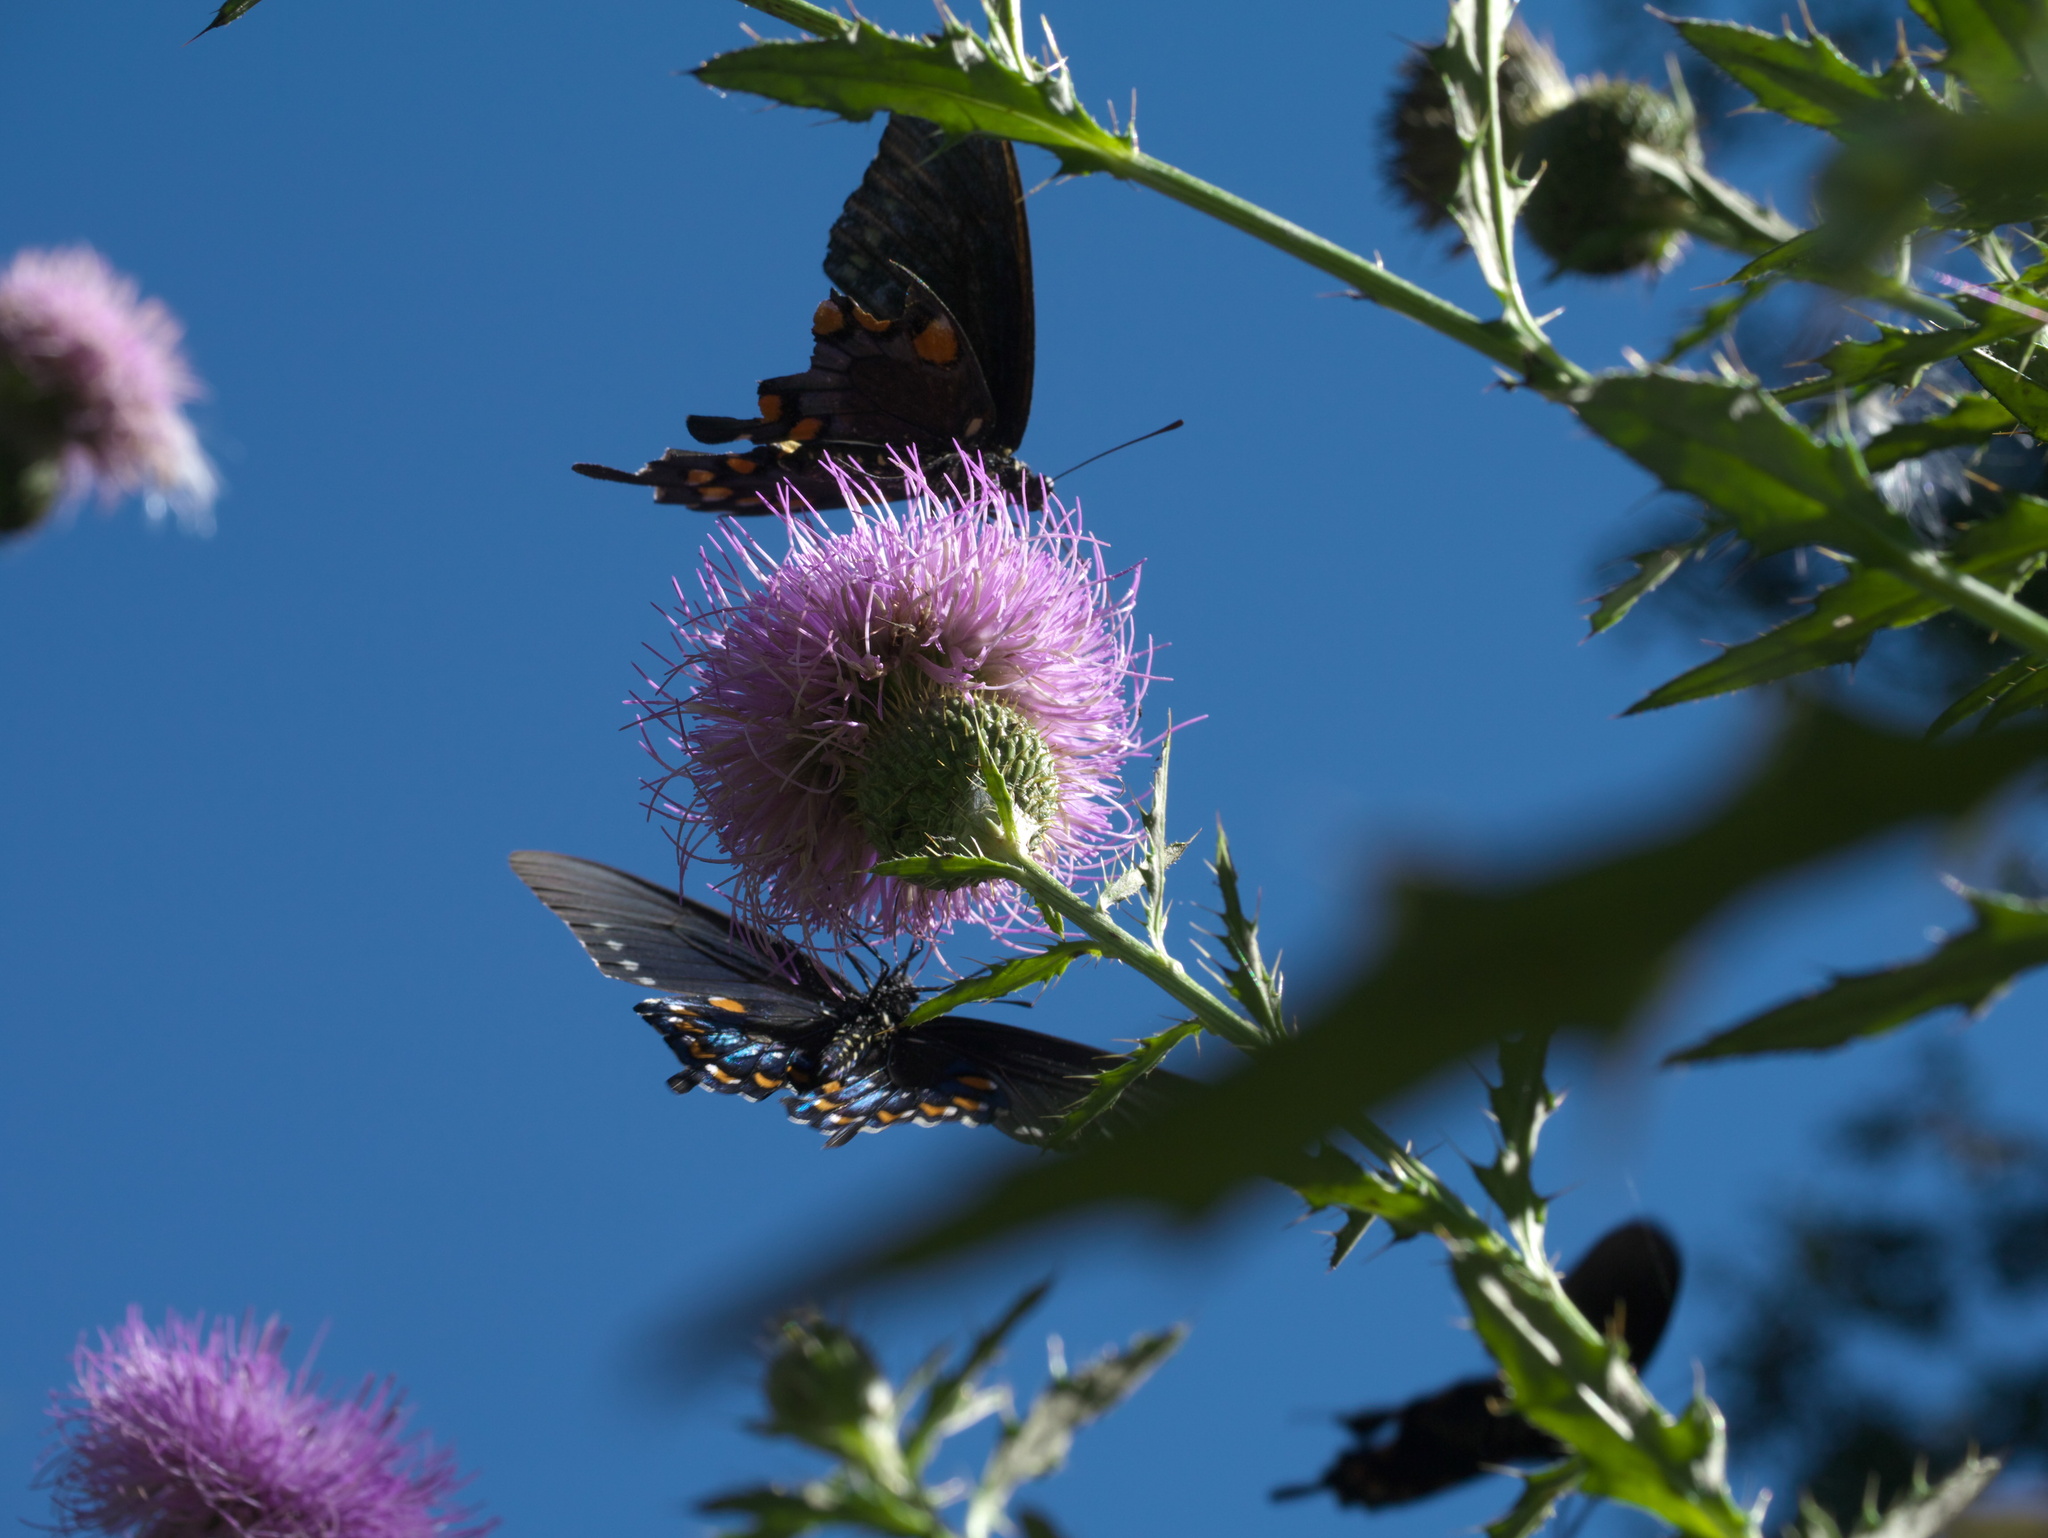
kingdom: Animalia
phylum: Arthropoda
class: Insecta
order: Lepidoptera
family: Papilionidae
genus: Battus
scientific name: Battus philenor
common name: Pipevine swallowtail
